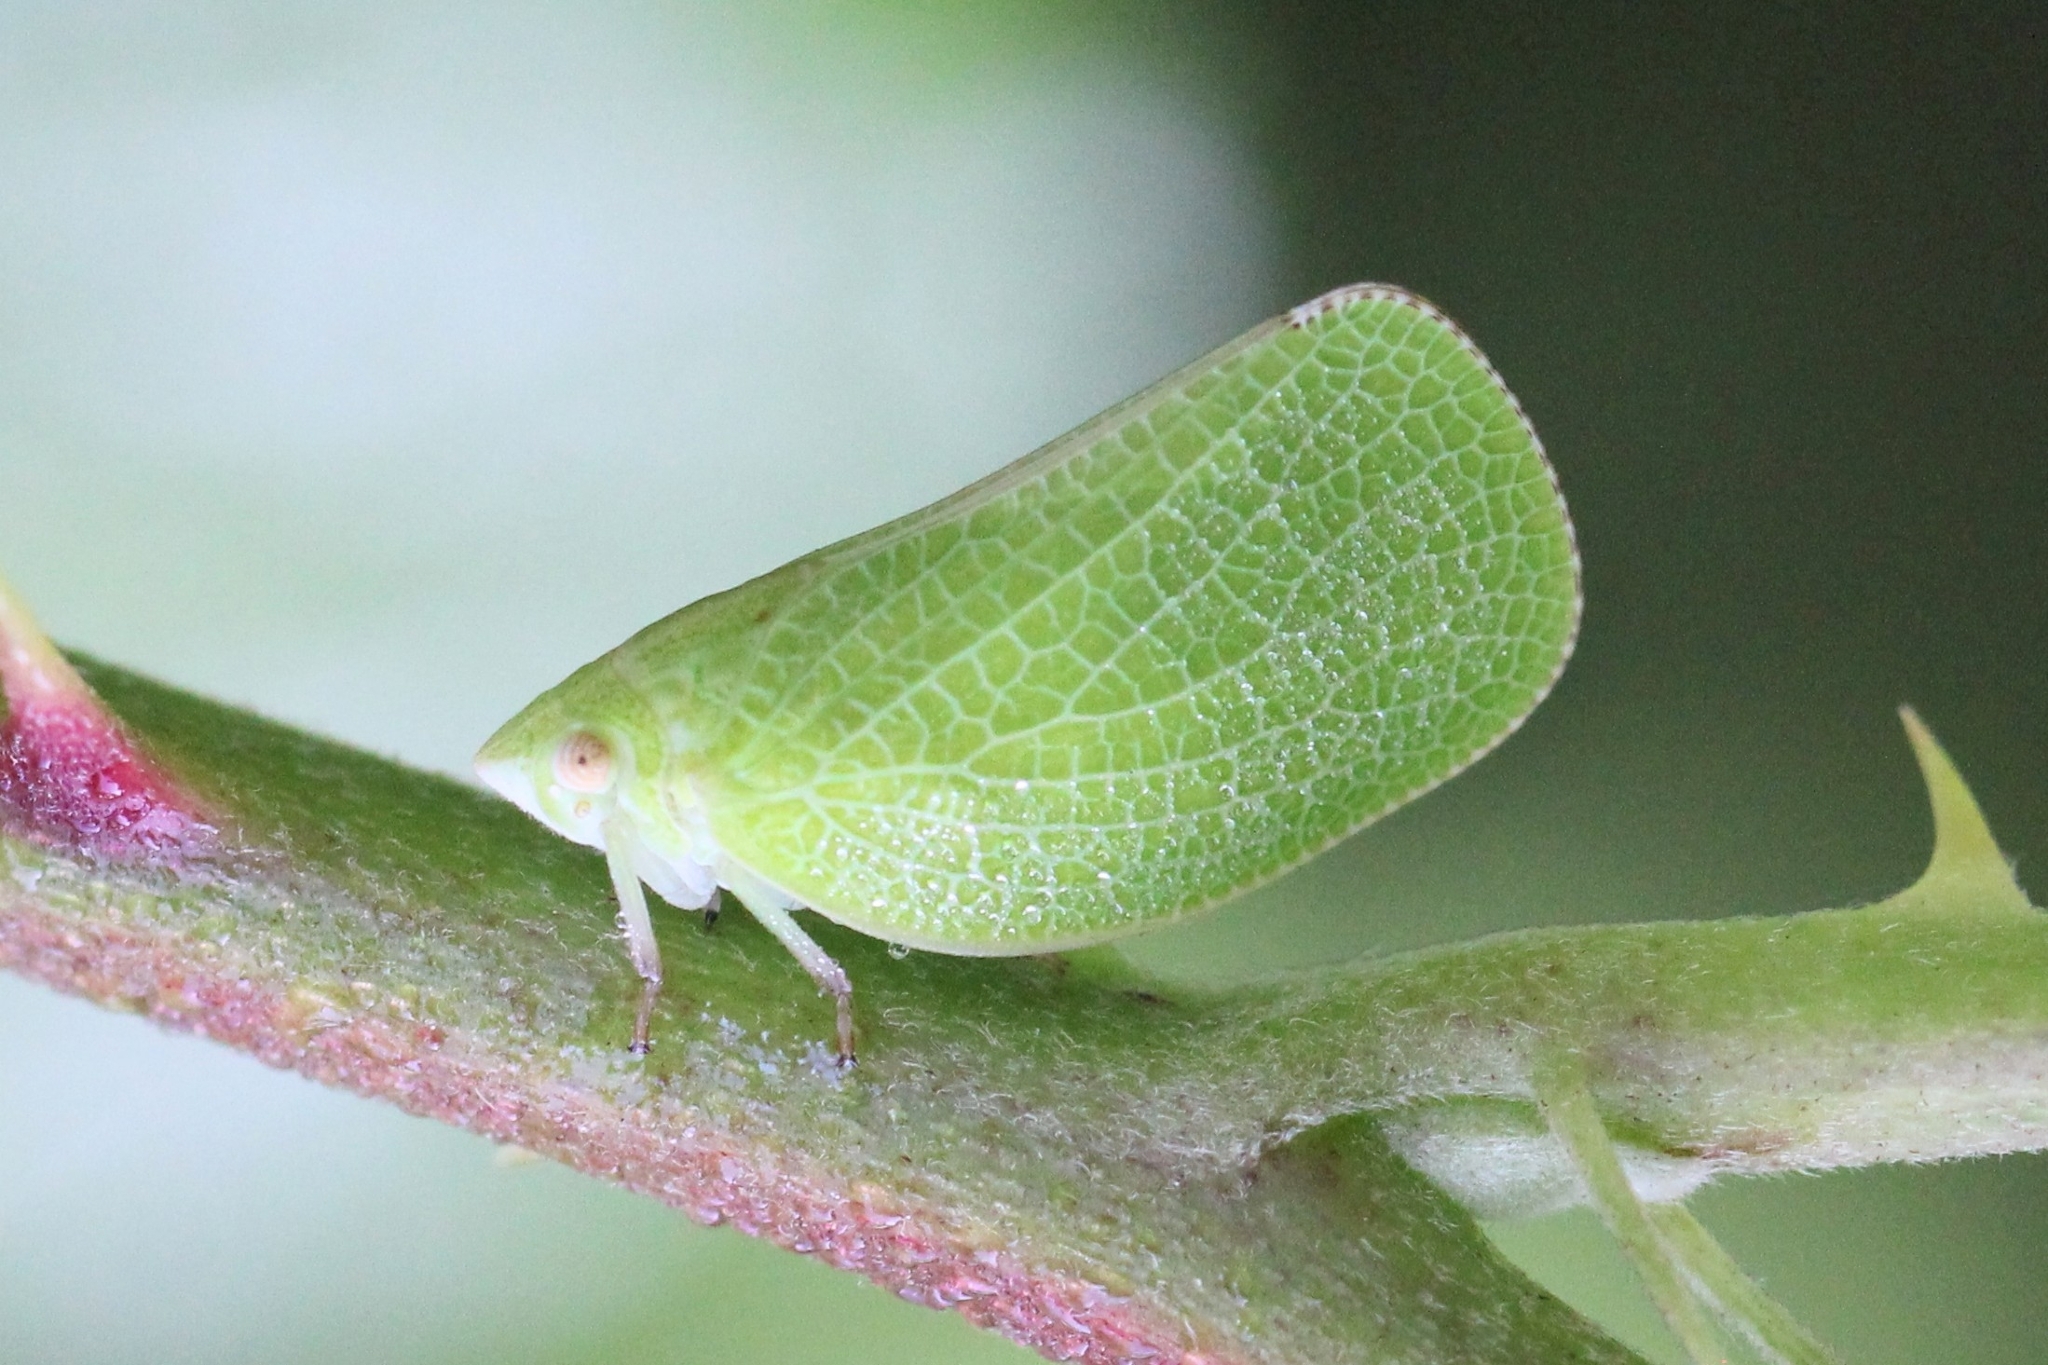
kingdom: Animalia
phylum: Arthropoda
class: Insecta
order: Hemiptera
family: Acanaloniidae
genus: Acanalonia
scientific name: Acanalonia conica
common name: Green cone-headed planthopper
